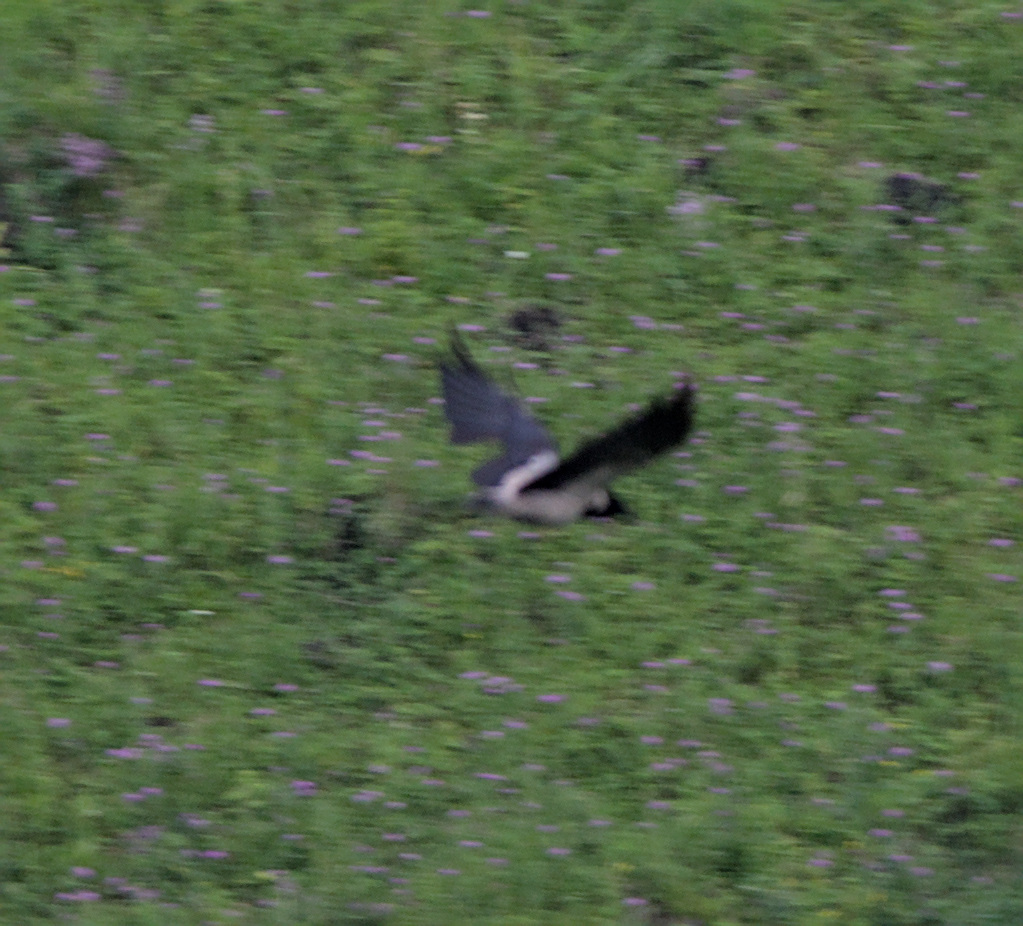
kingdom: Animalia
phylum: Chordata
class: Aves
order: Passeriformes
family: Corvidae
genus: Corvus
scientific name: Corvus cornix
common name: Hooded crow
